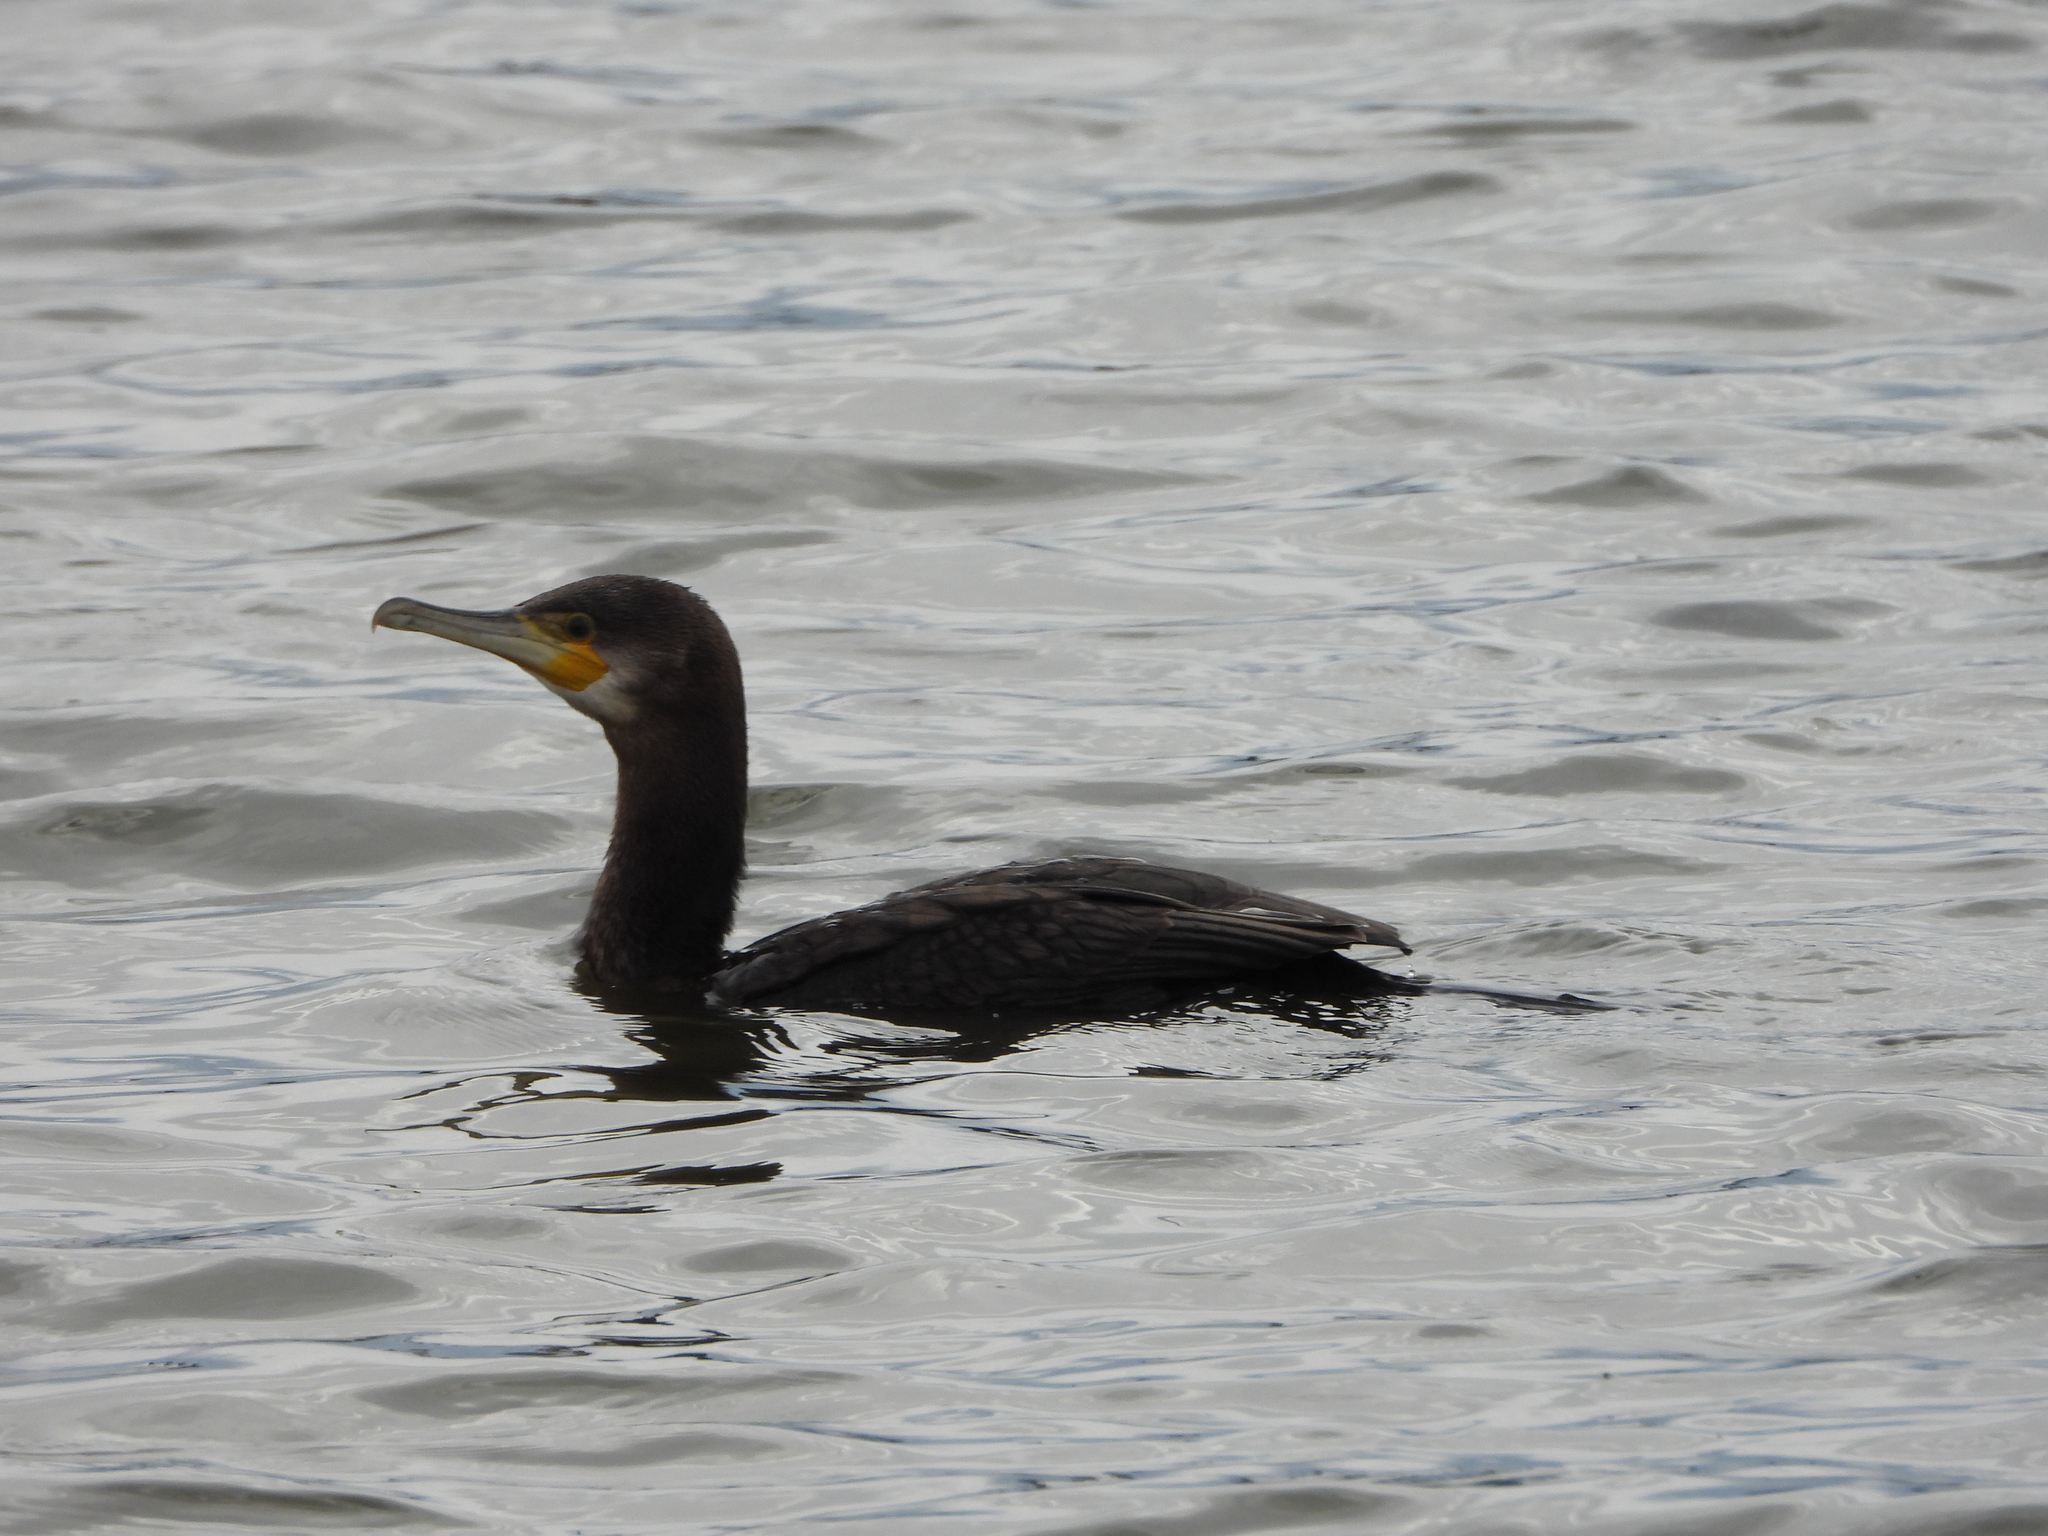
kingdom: Animalia
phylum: Chordata
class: Aves
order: Suliformes
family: Phalacrocoracidae
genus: Phalacrocorax
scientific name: Phalacrocorax carbo
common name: Great cormorant
